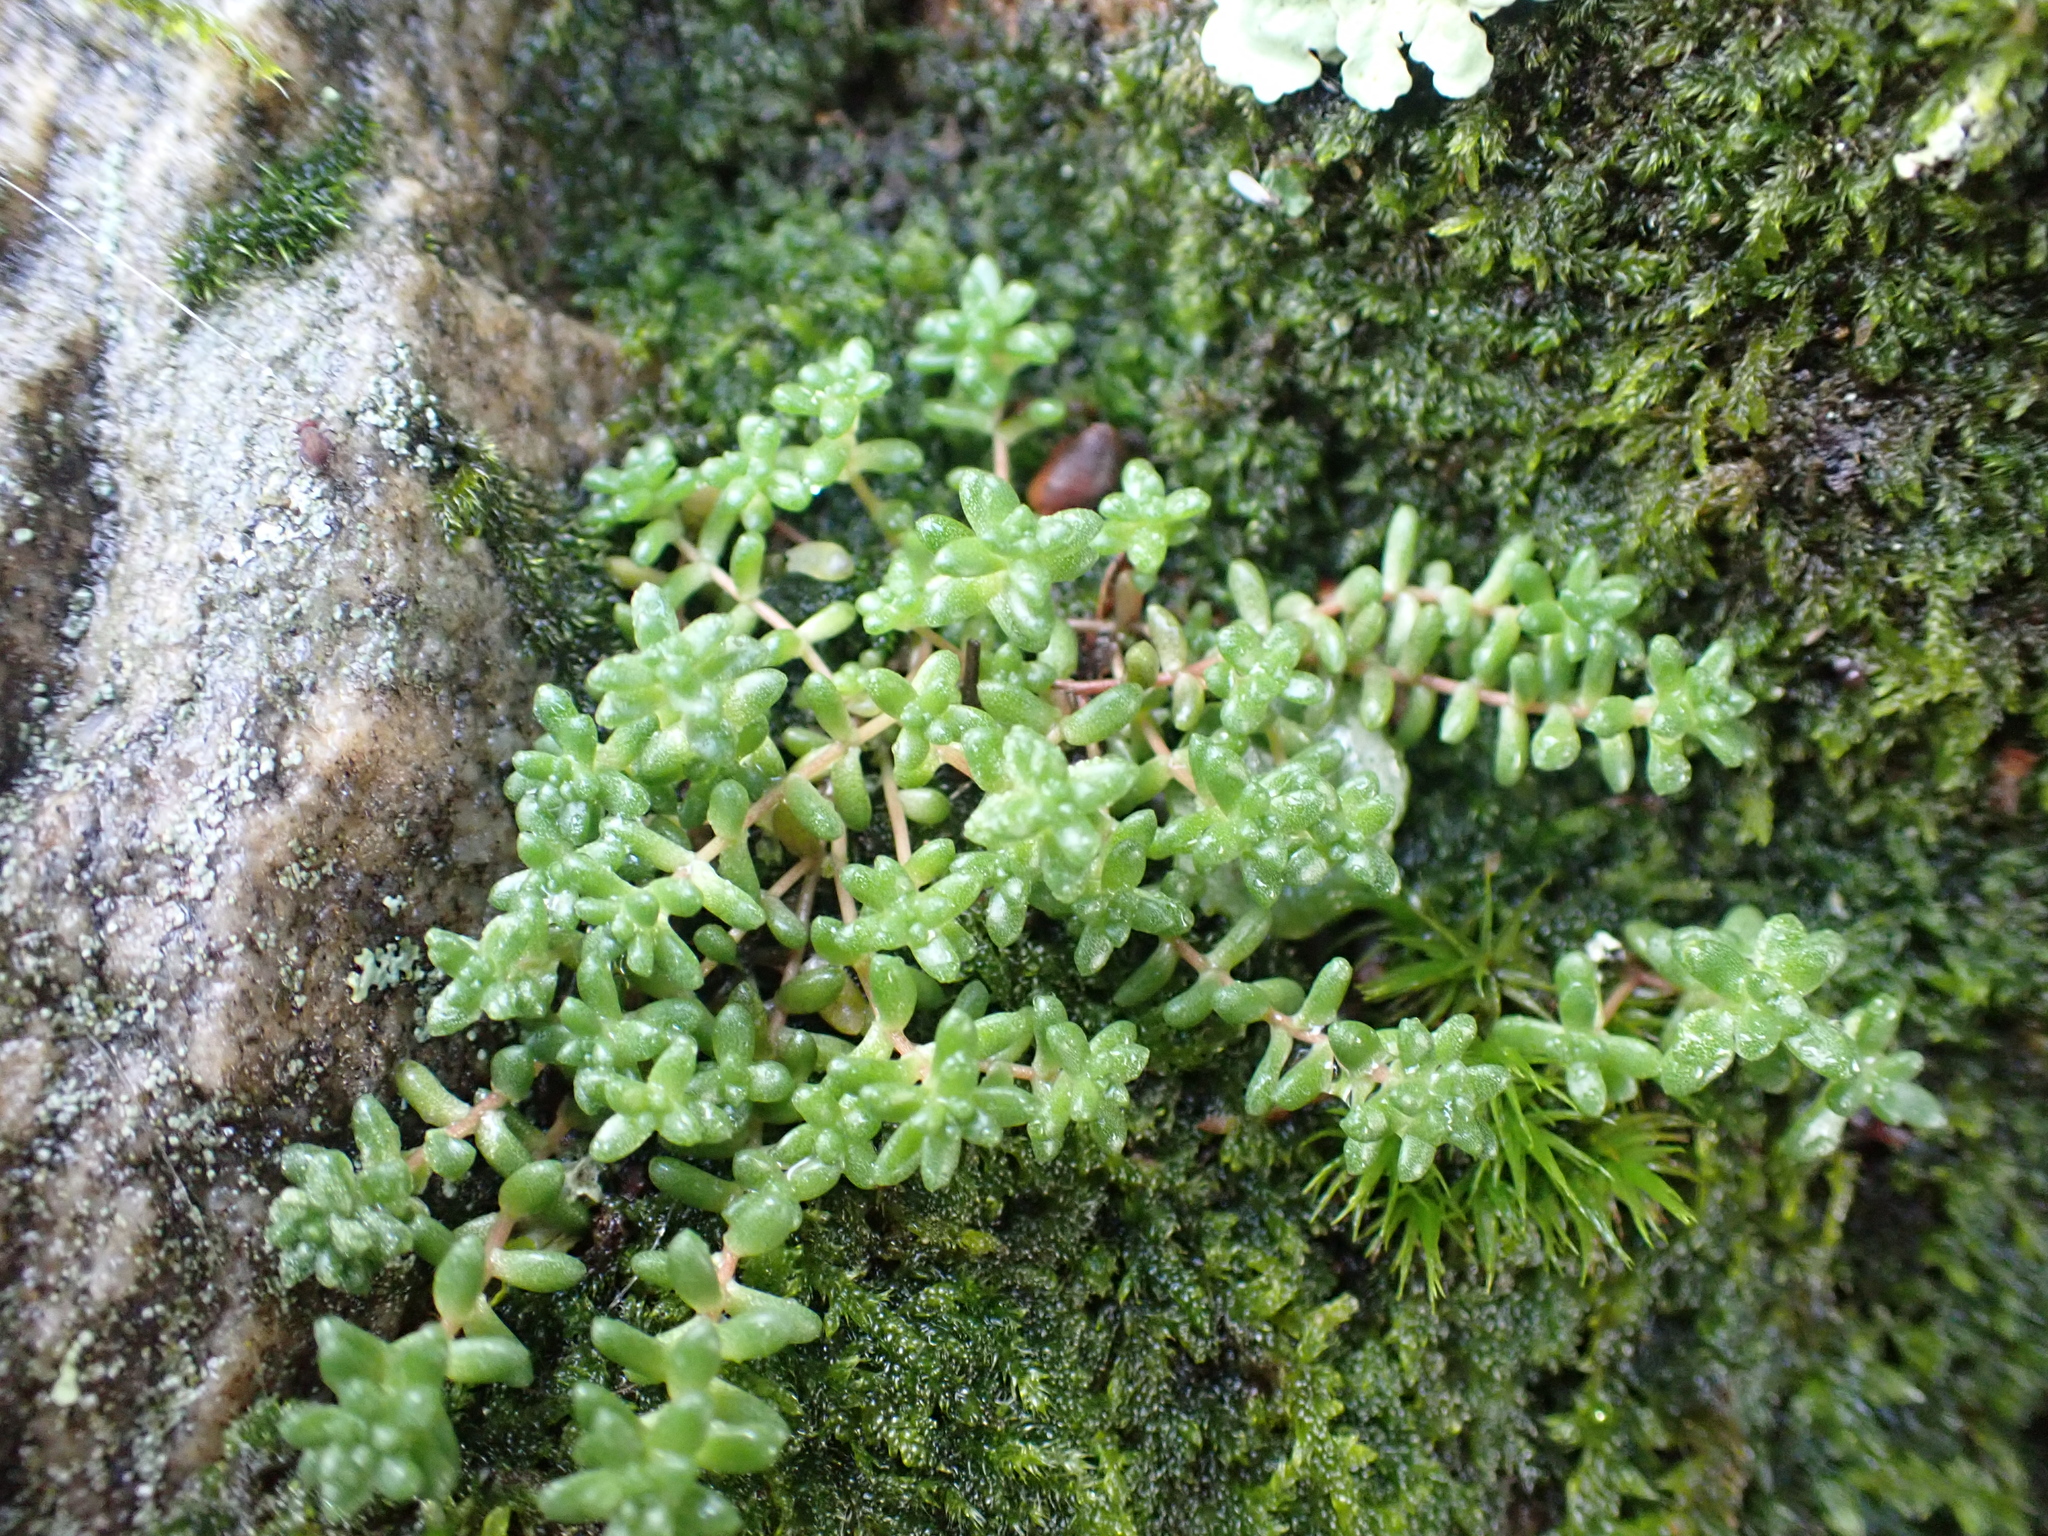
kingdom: Plantae
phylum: Tracheophyta
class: Magnoliopsida
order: Saxifragales
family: Crassulaceae
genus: Sedum
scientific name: Sedum anglicum
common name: English stonecrop
